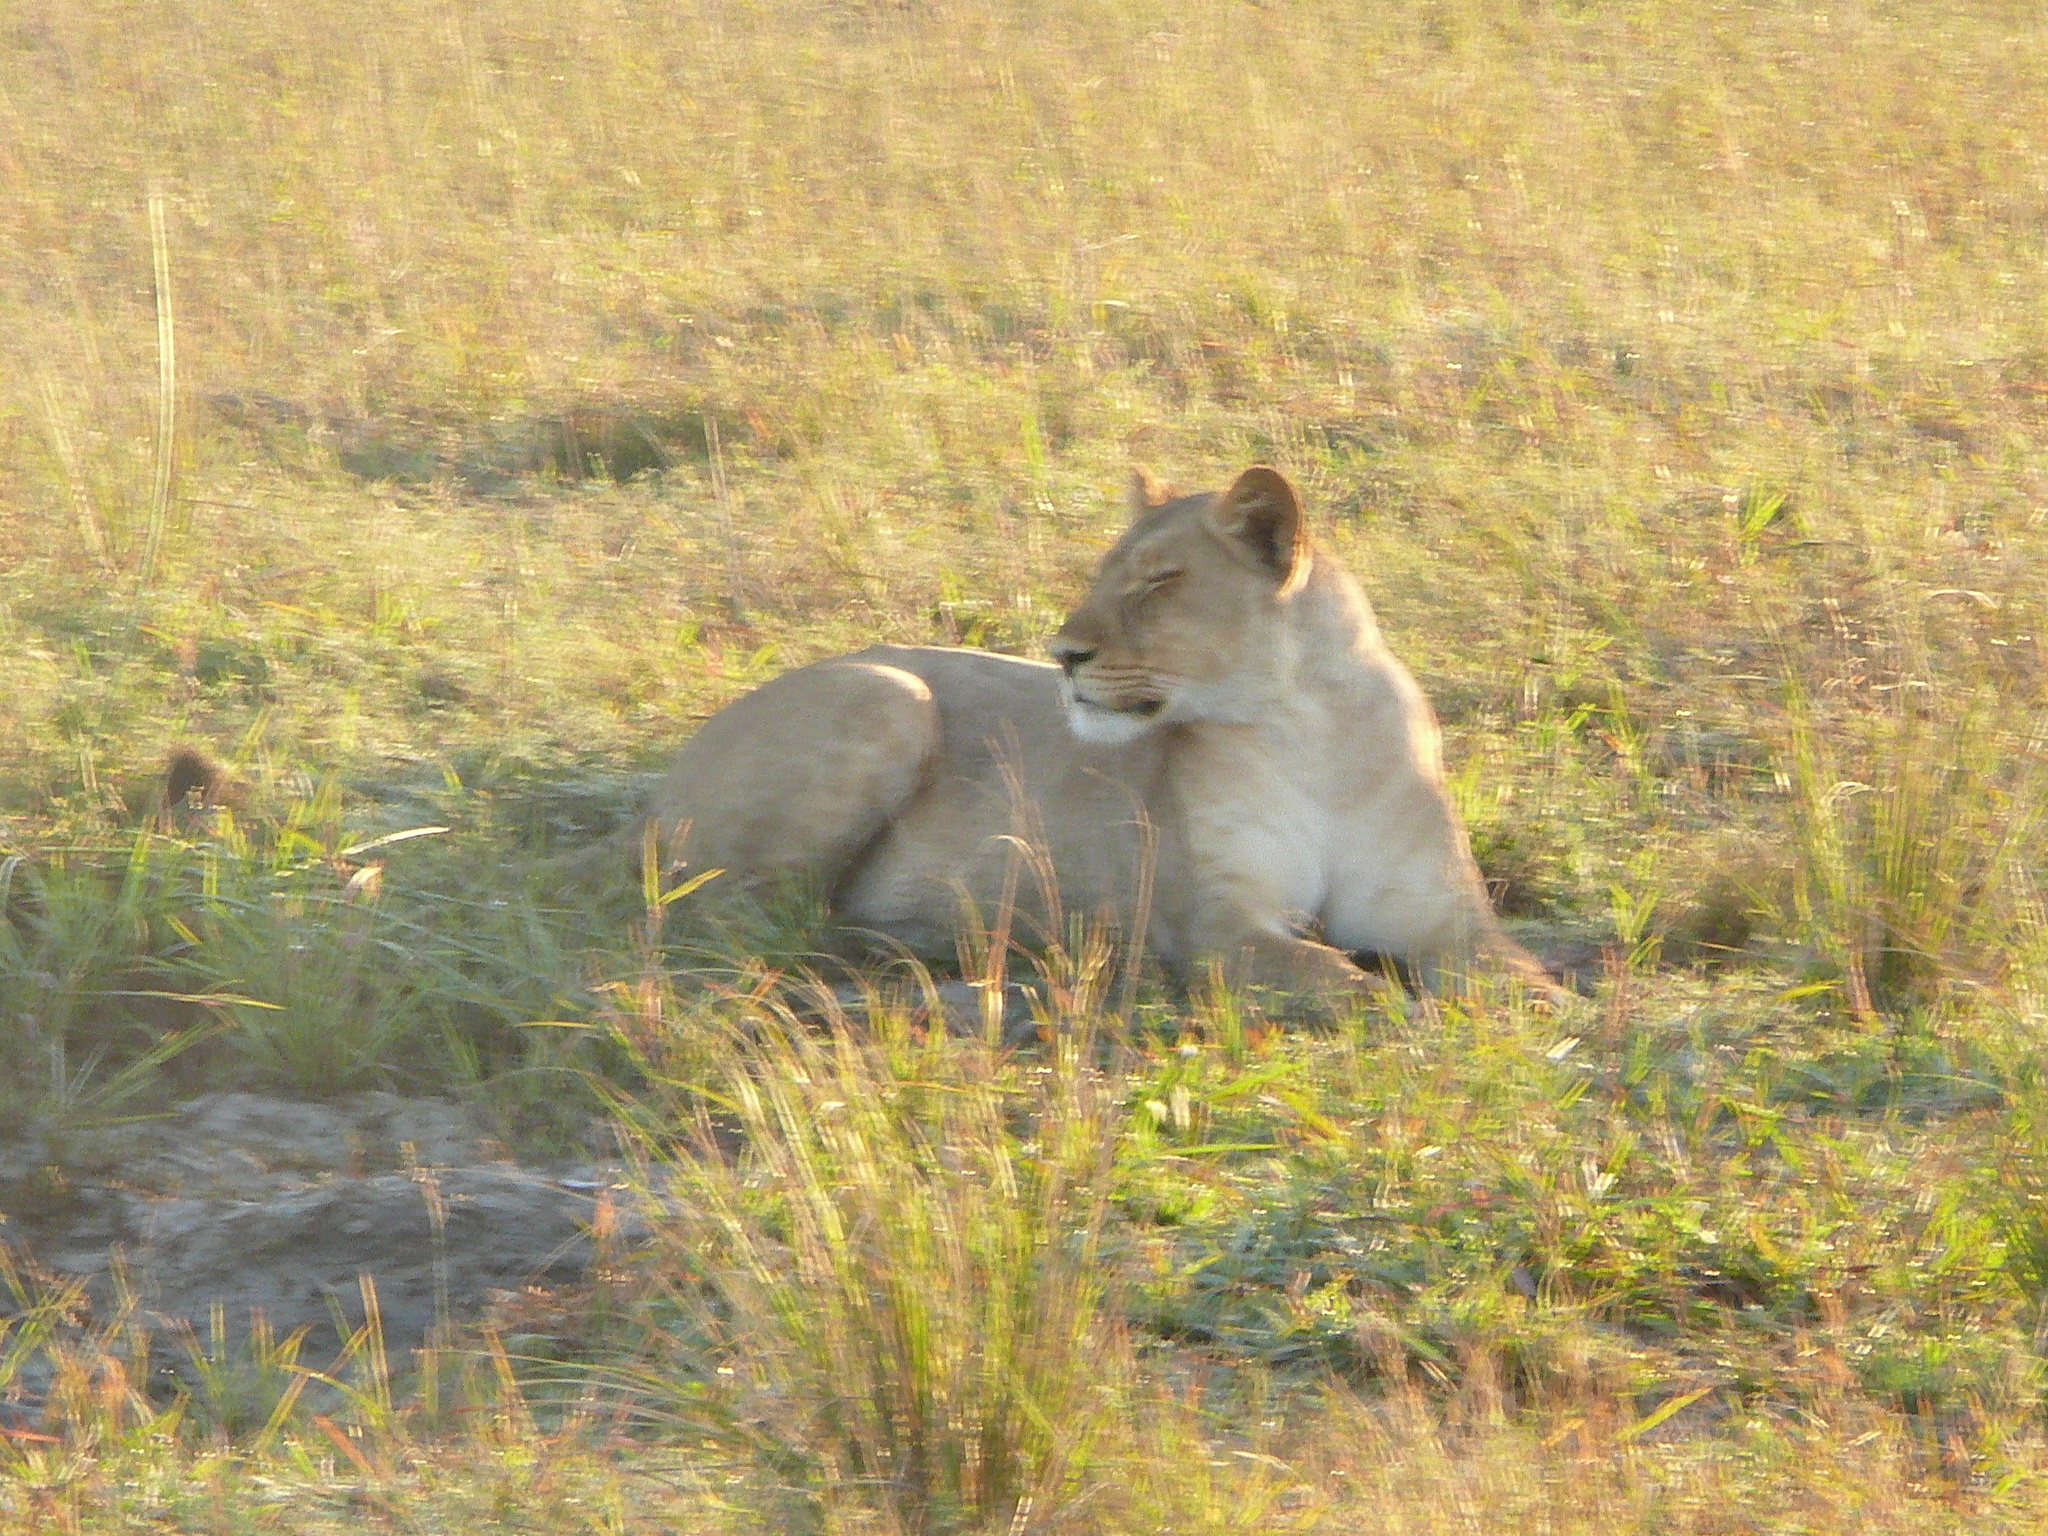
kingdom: Animalia
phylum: Chordata
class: Mammalia
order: Carnivora
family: Felidae
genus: Panthera
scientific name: Panthera leo
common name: Lion
